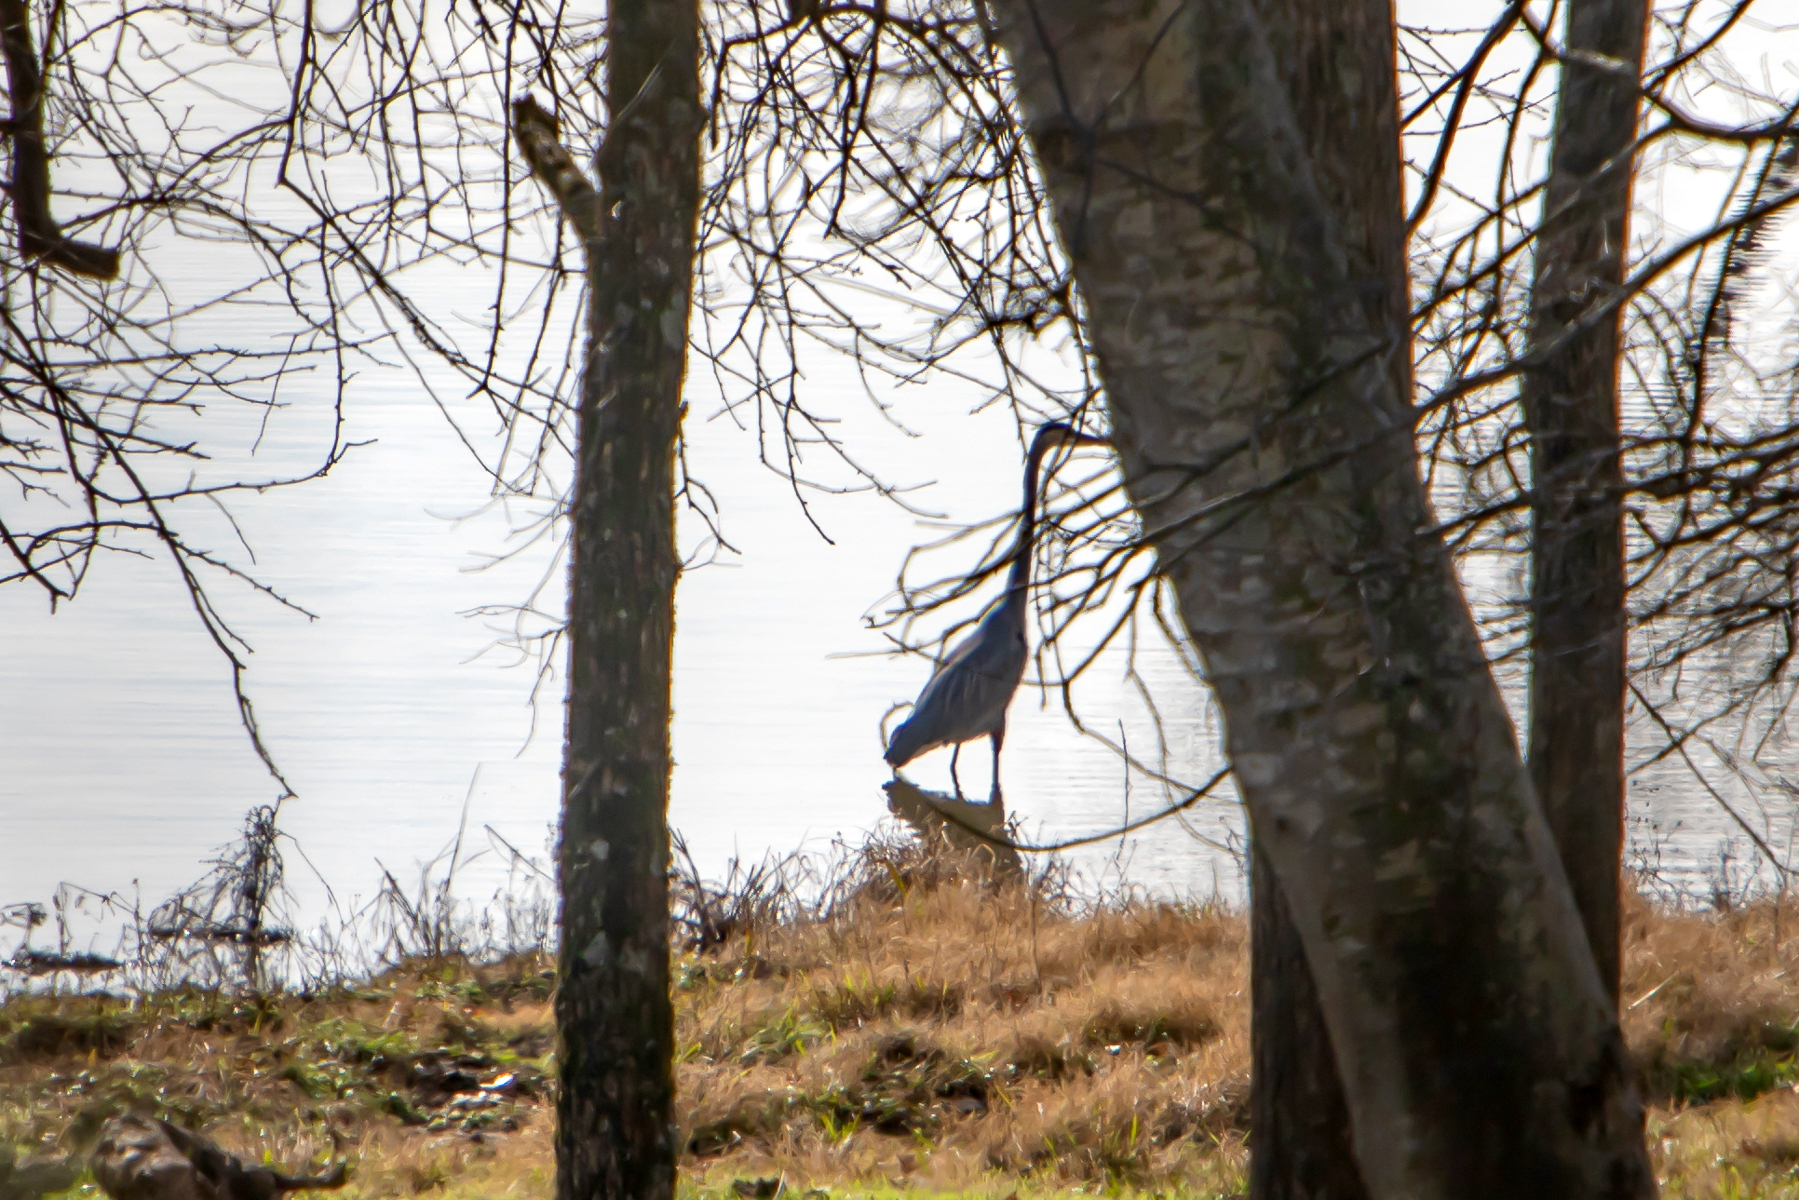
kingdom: Animalia
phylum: Chordata
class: Aves
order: Pelecaniformes
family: Ardeidae
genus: Ardea
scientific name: Ardea herodias
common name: Great blue heron
